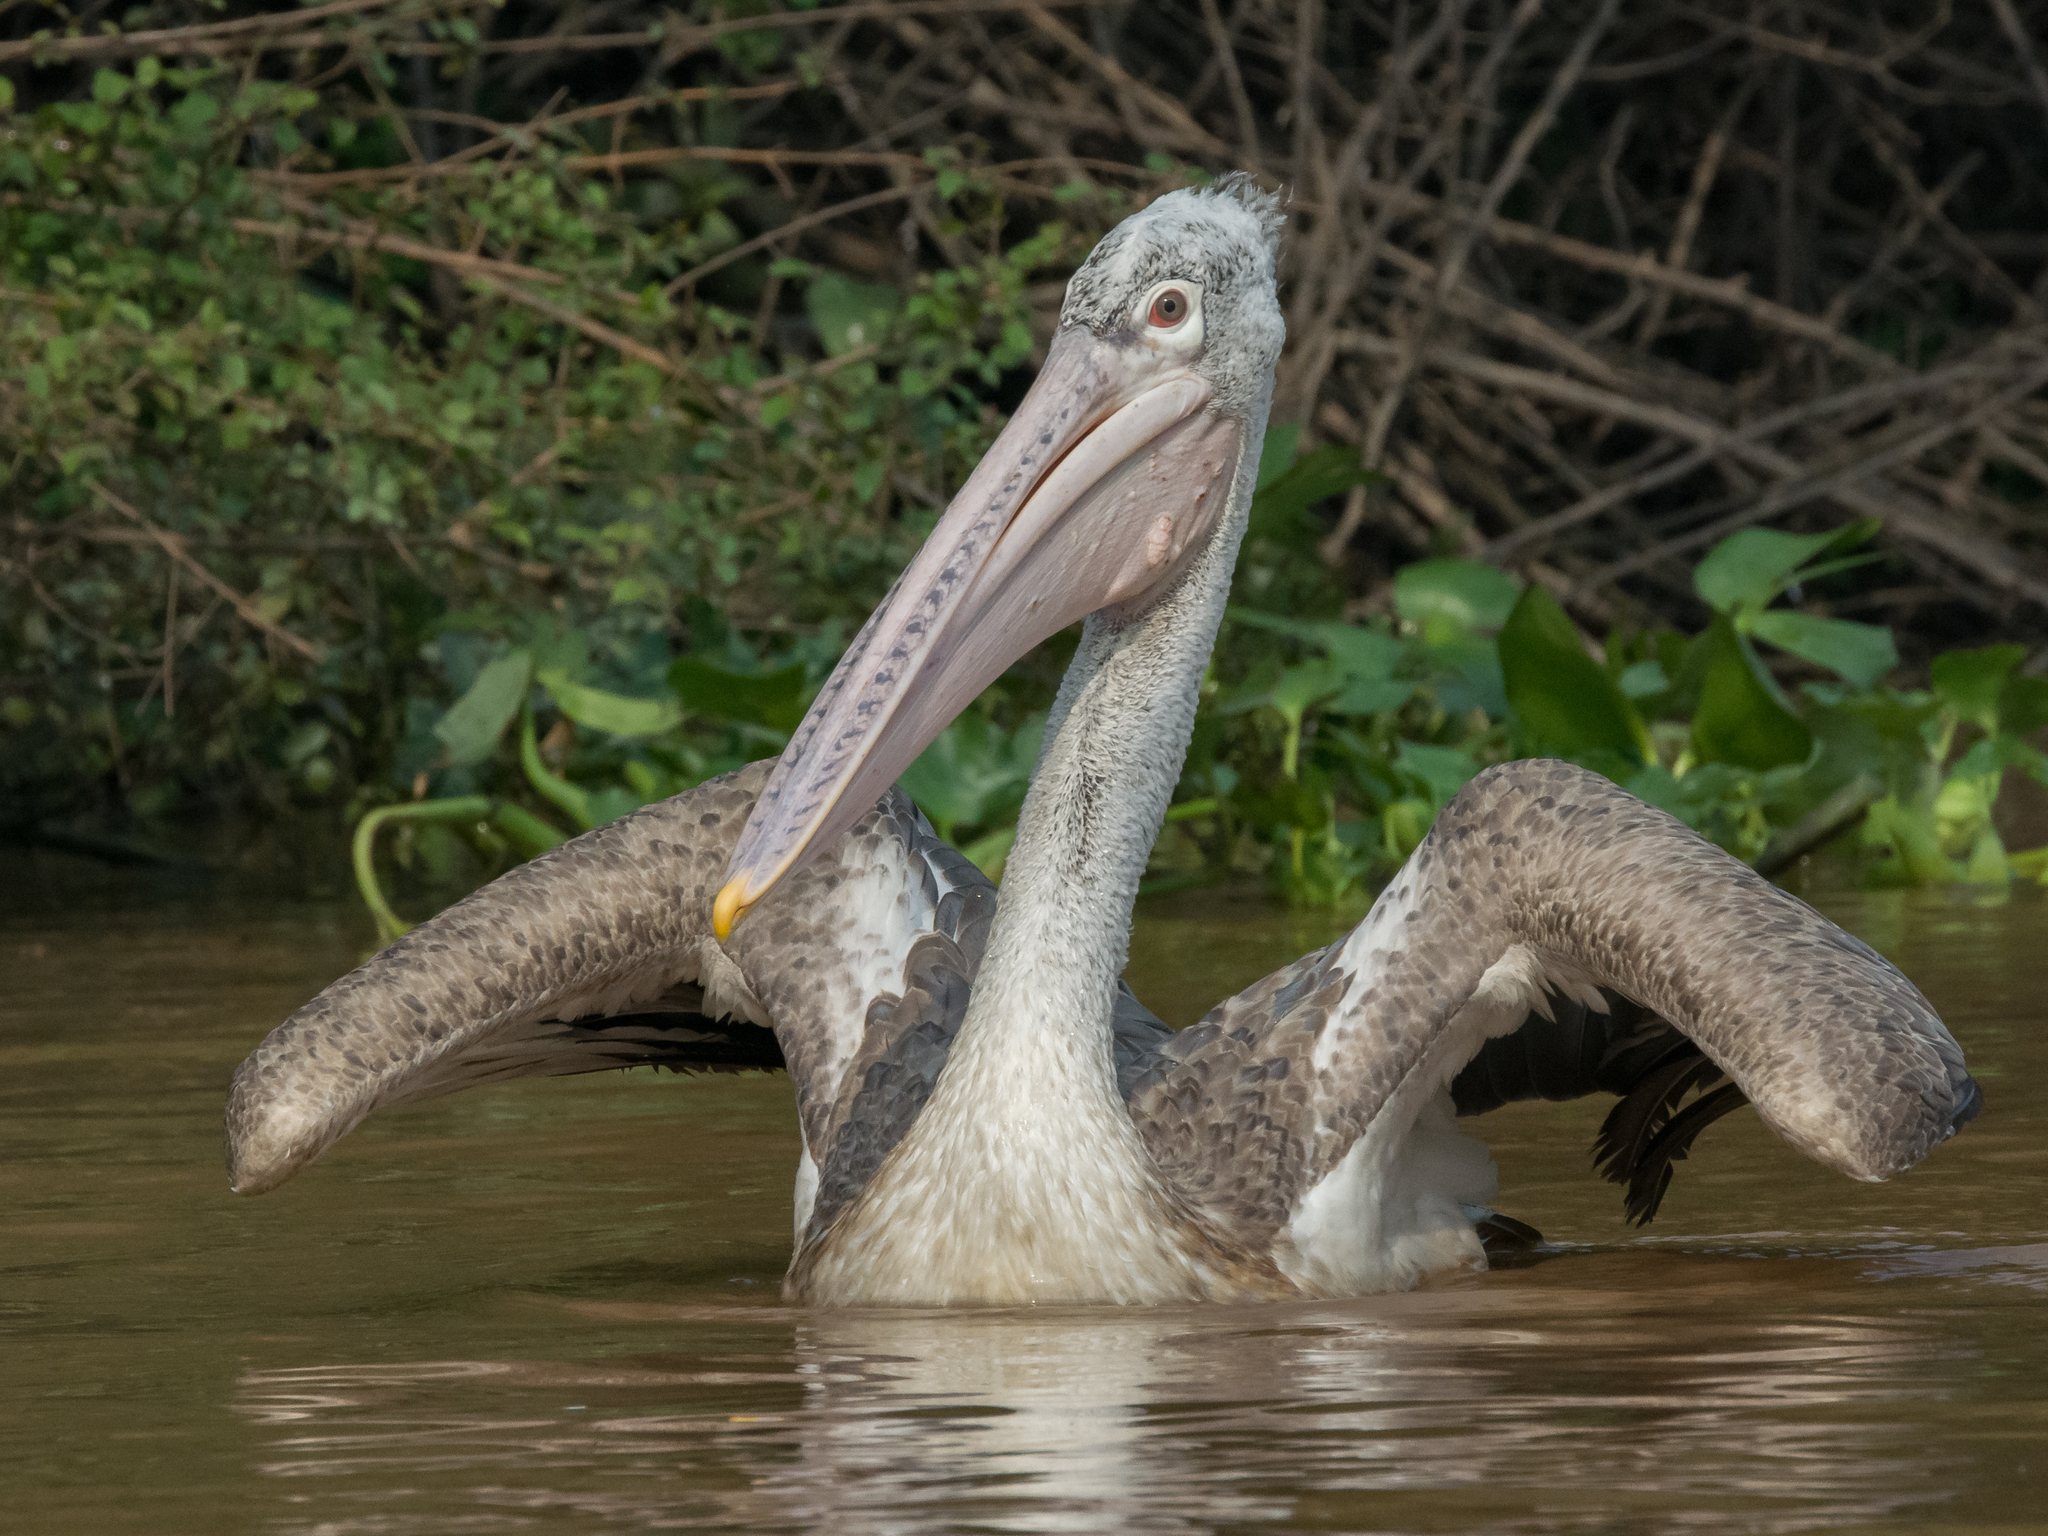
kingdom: Animalia
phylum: Chordata
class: Aves
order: Pelecaniformes
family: Pelecanidae
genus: Pelecanus
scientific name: Pelecanus philippensis
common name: Spot-billed pelican
